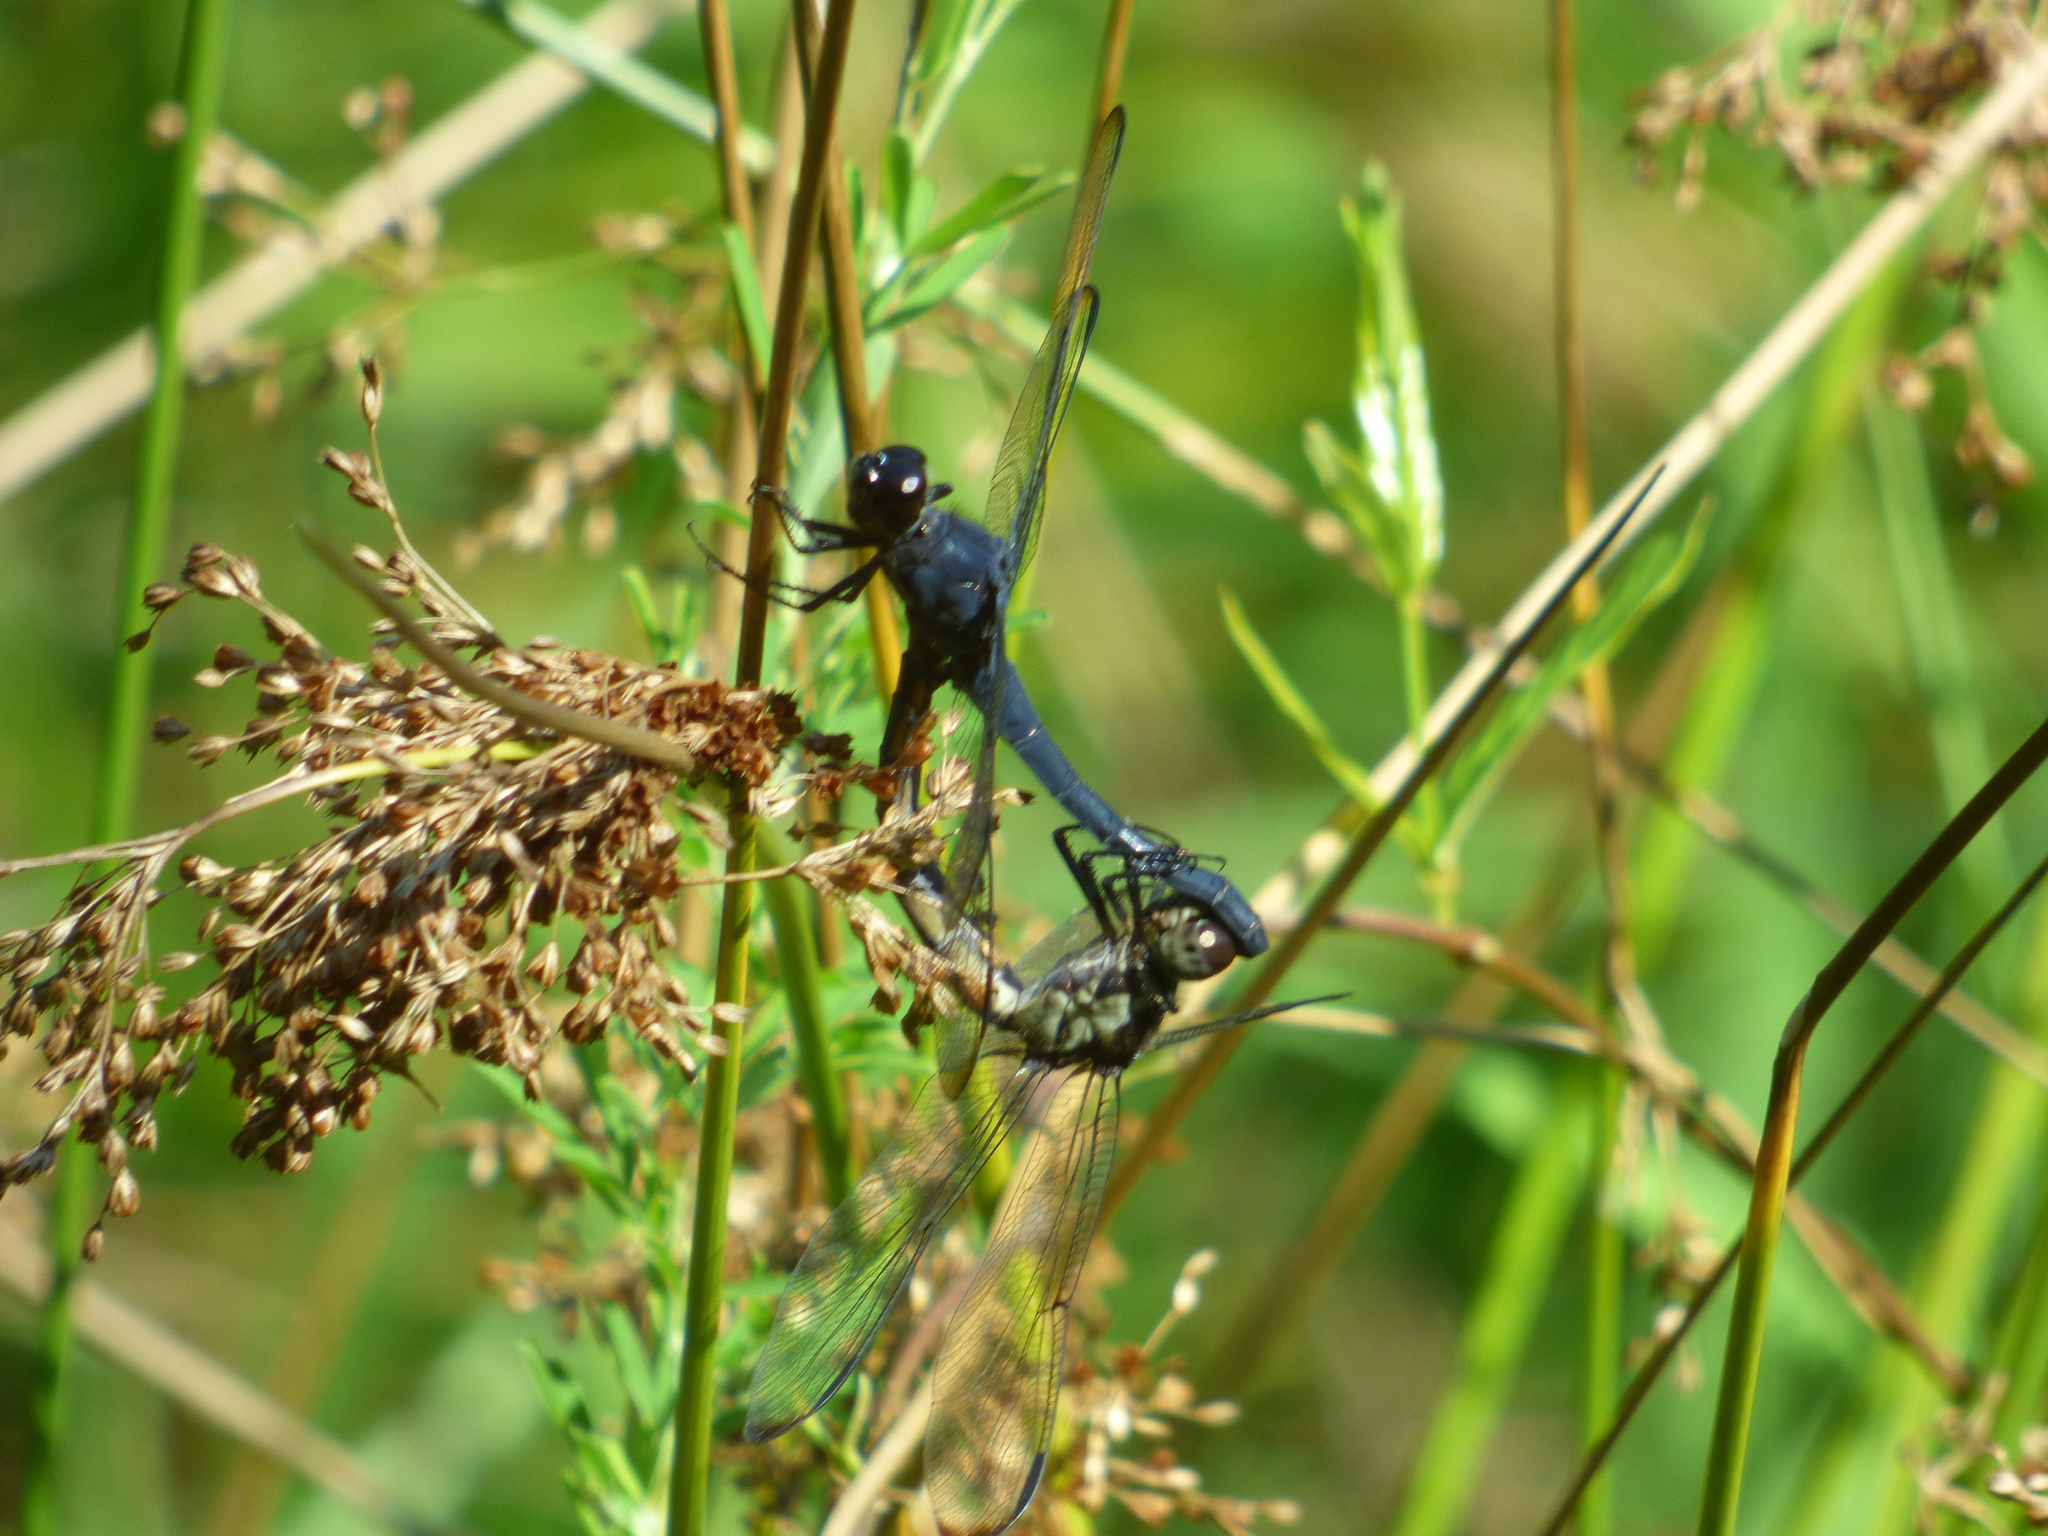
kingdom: Animalia
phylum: Arthropoda
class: Insecta
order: Odonata
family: Libellulidae
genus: Libellula
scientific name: Libellula incesta
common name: Slaty skimmer
